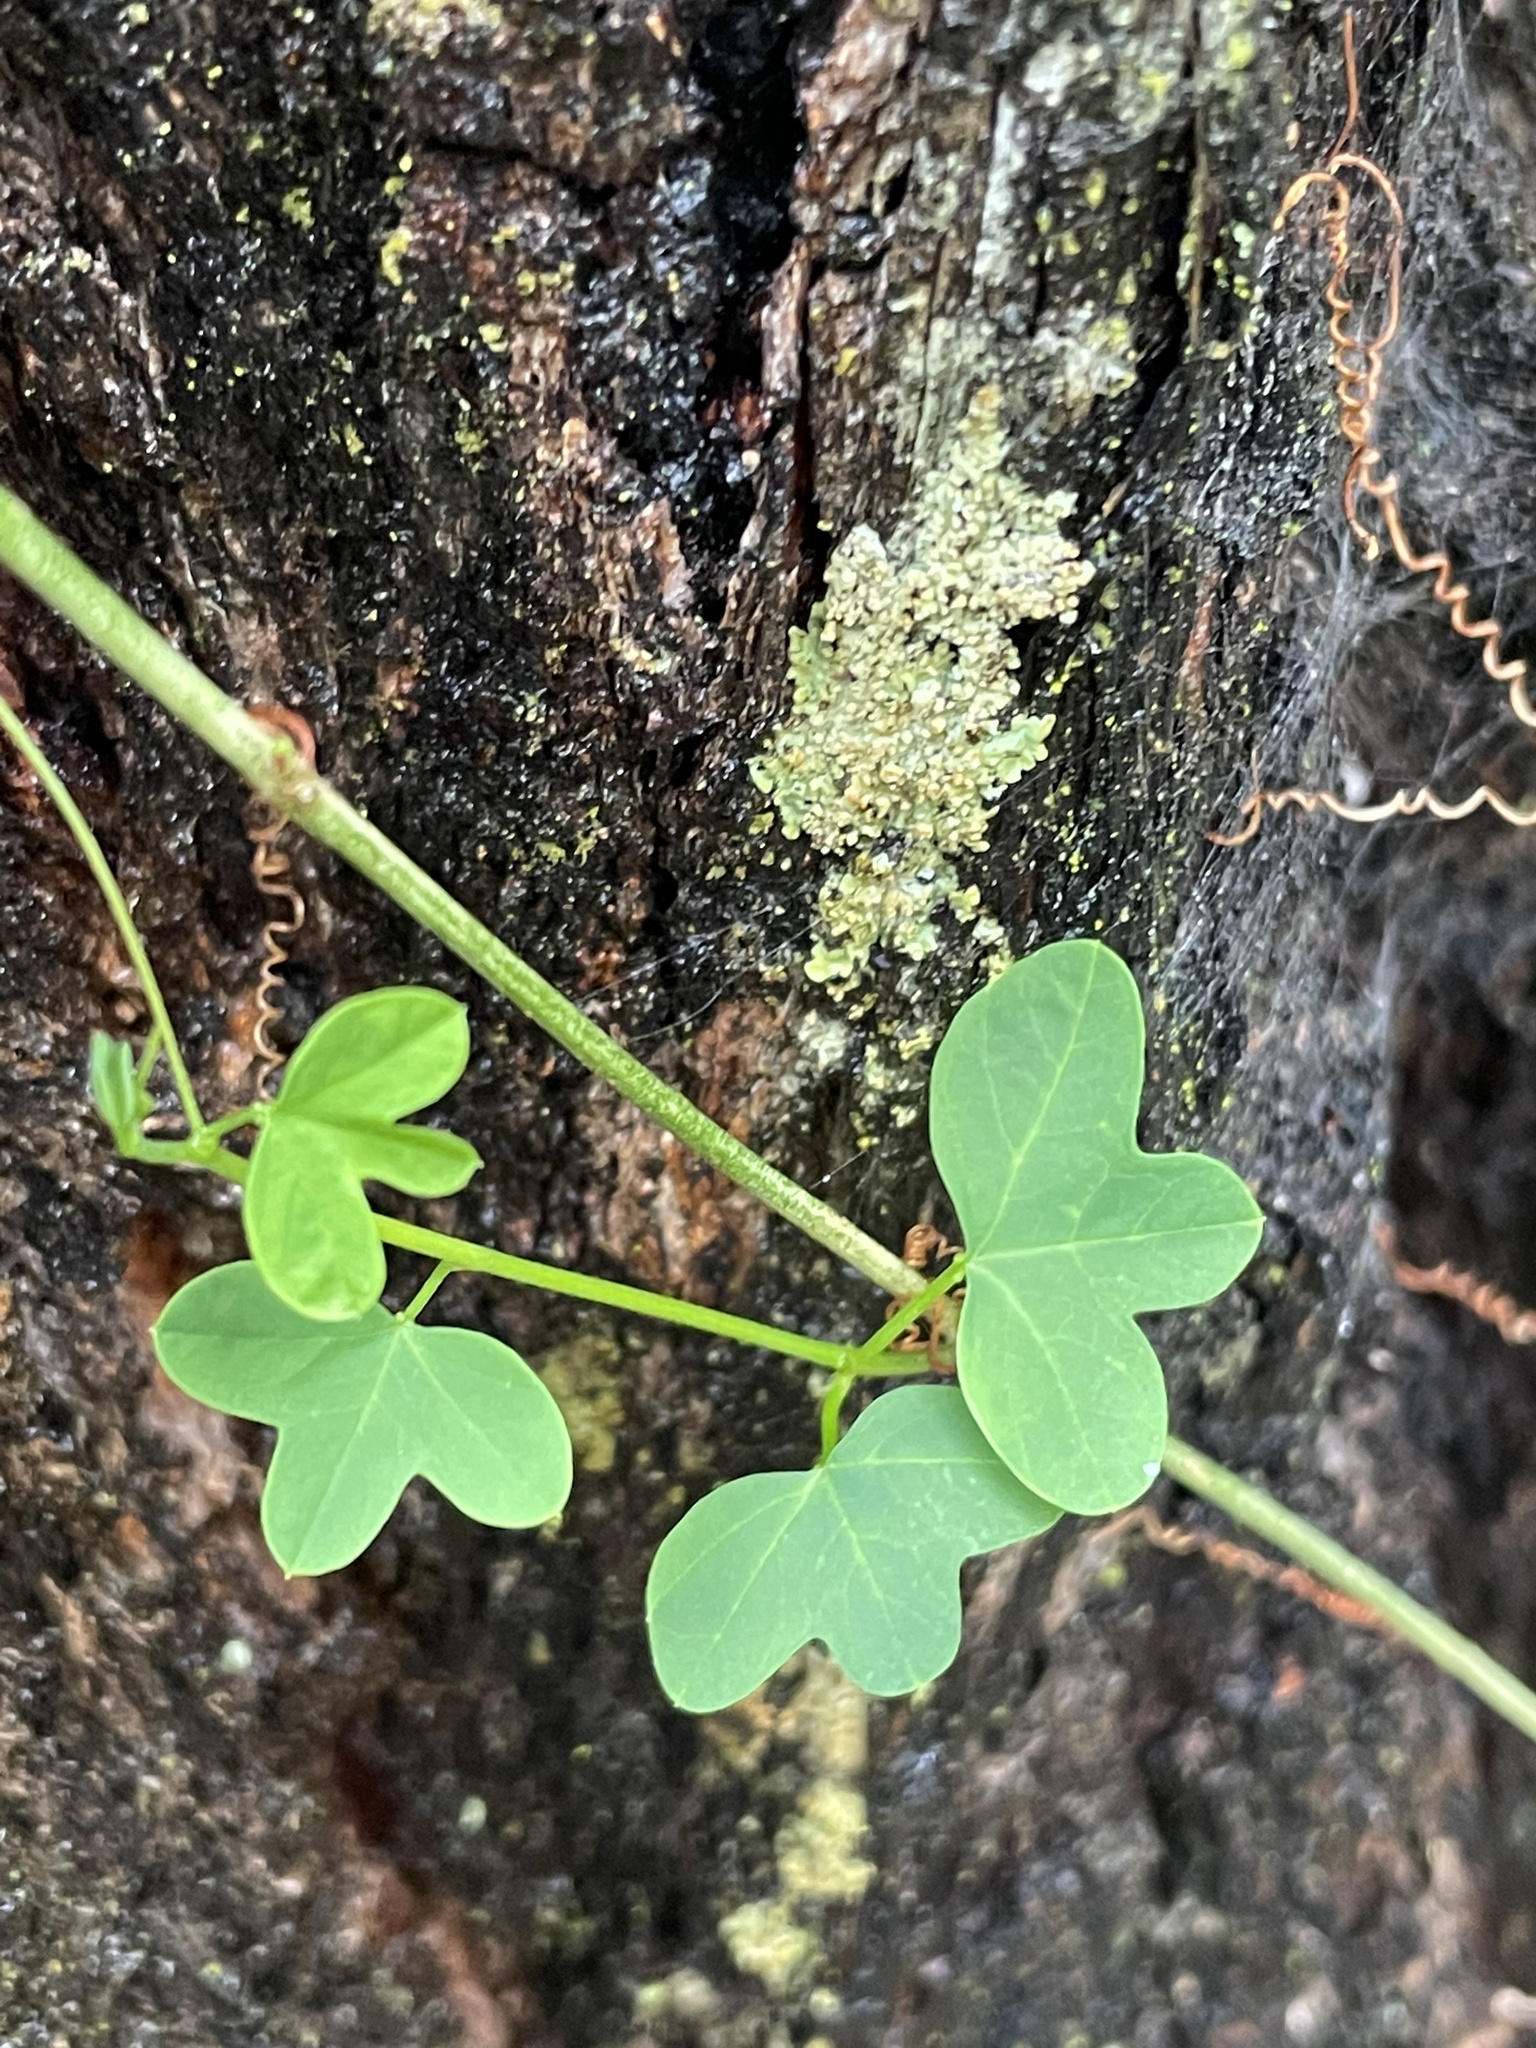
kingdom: Plantae
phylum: Tracheophyta
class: Magnoliopsida
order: Malpighiales
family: Passifloraceae
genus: Passiflora
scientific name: Passiflora aurantia
